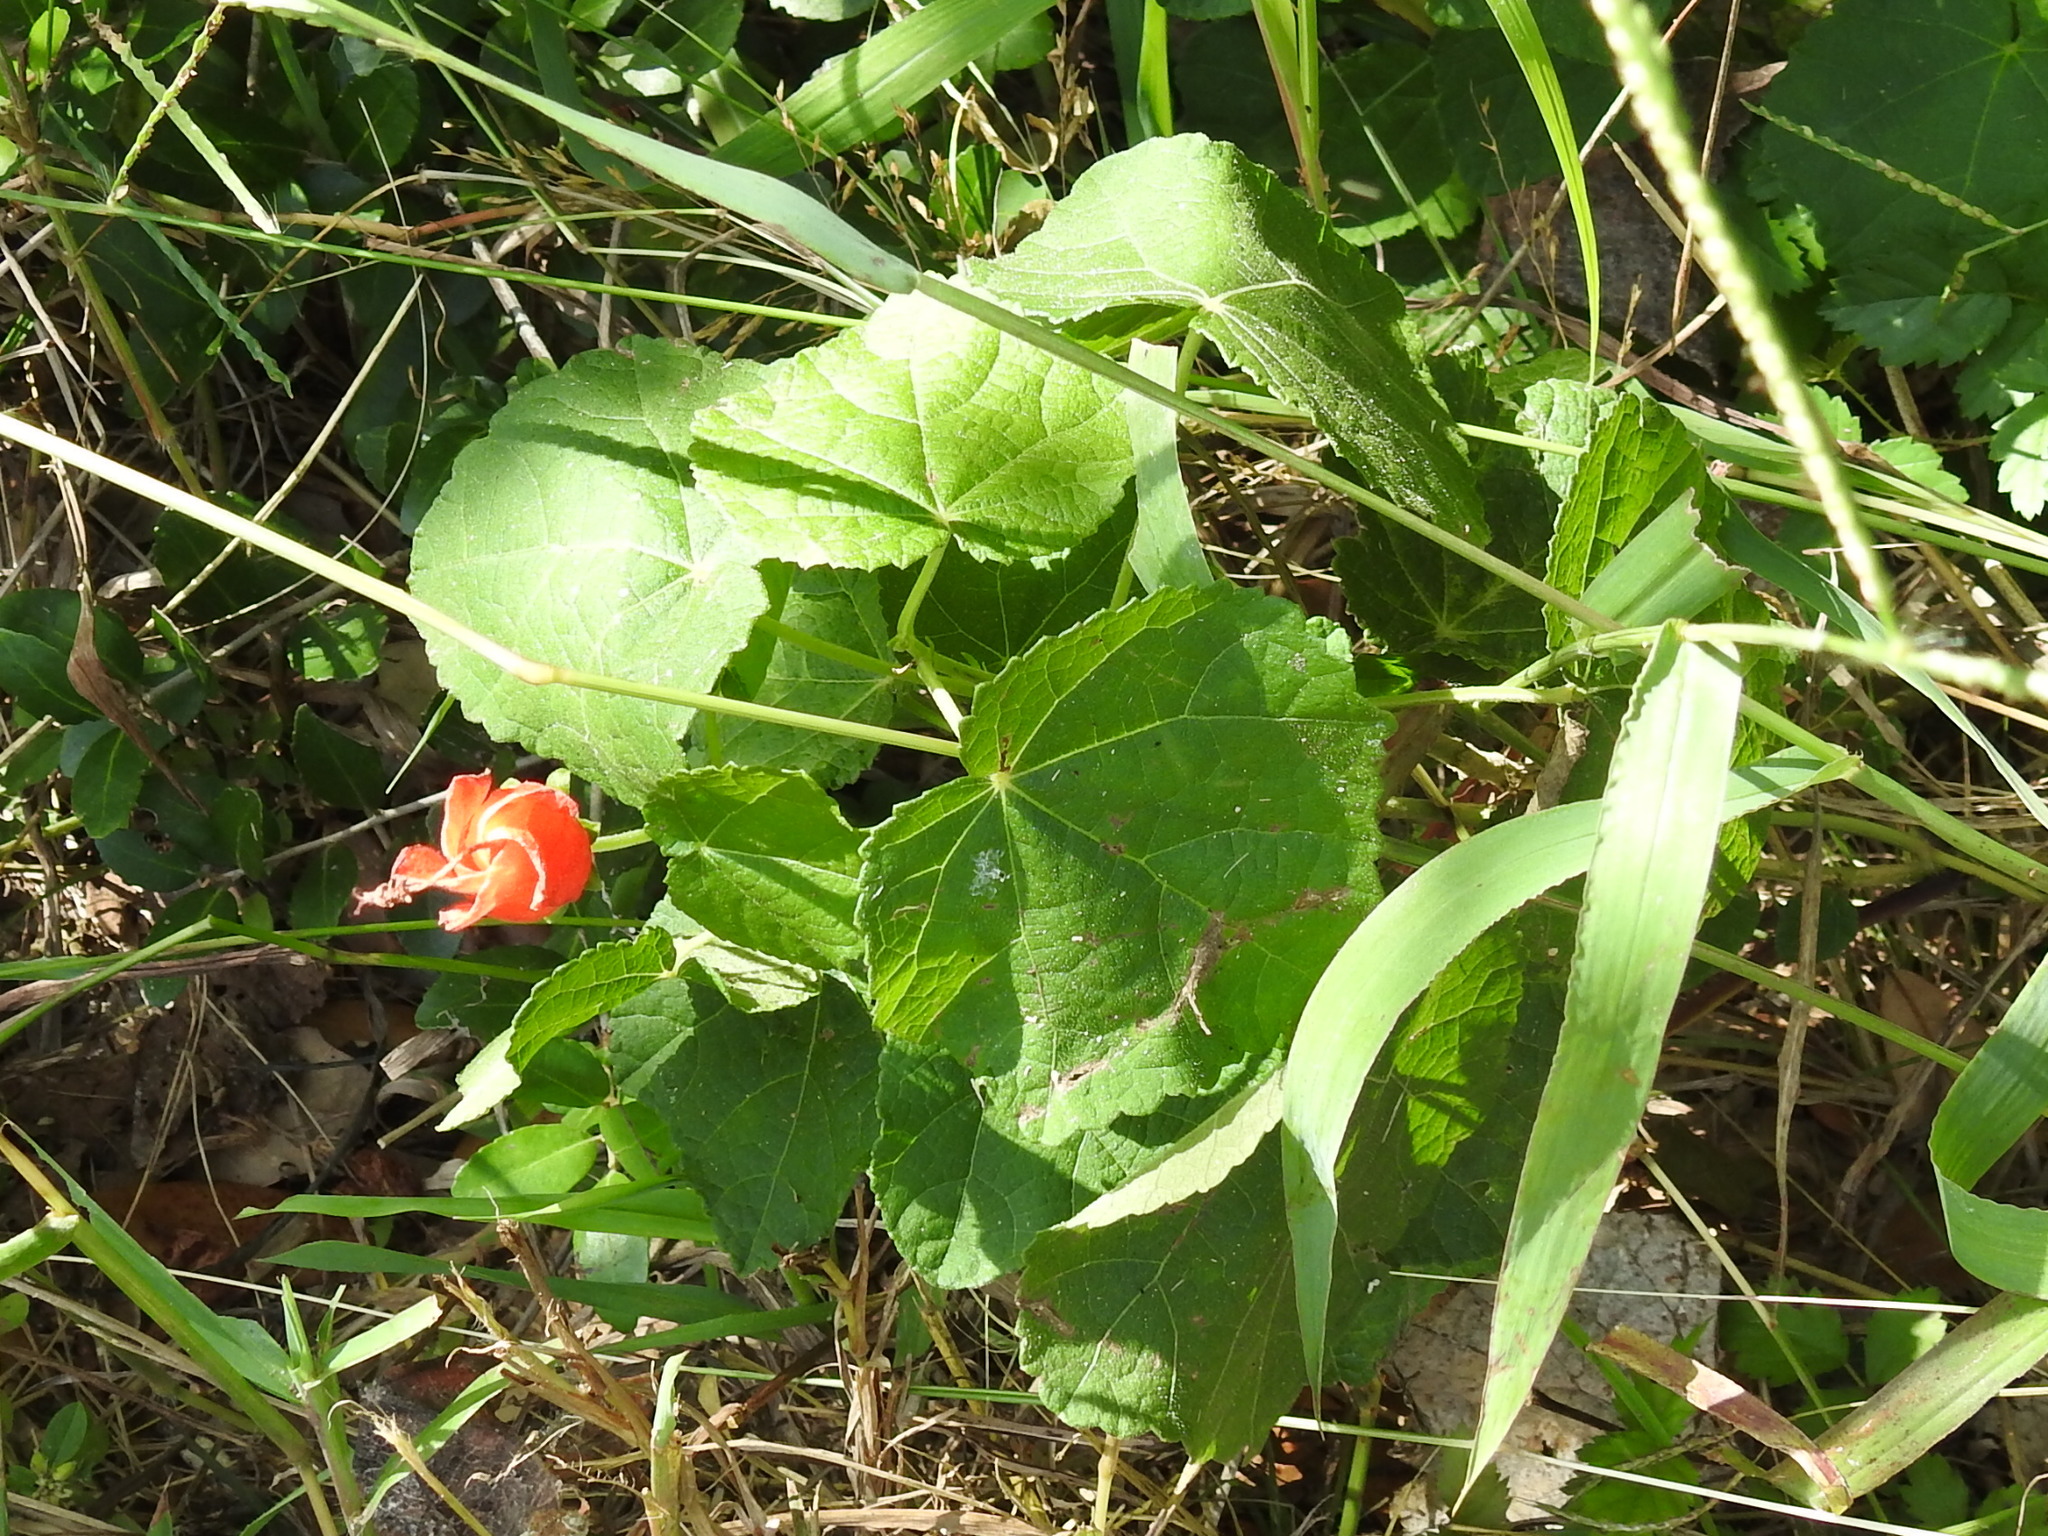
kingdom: Plantae
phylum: Tracheophyta
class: Magnoliopsida
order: Malvales
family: Malvaceae
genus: Malvaviscus
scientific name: Malvaviscus arboreus
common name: Wax mallow
